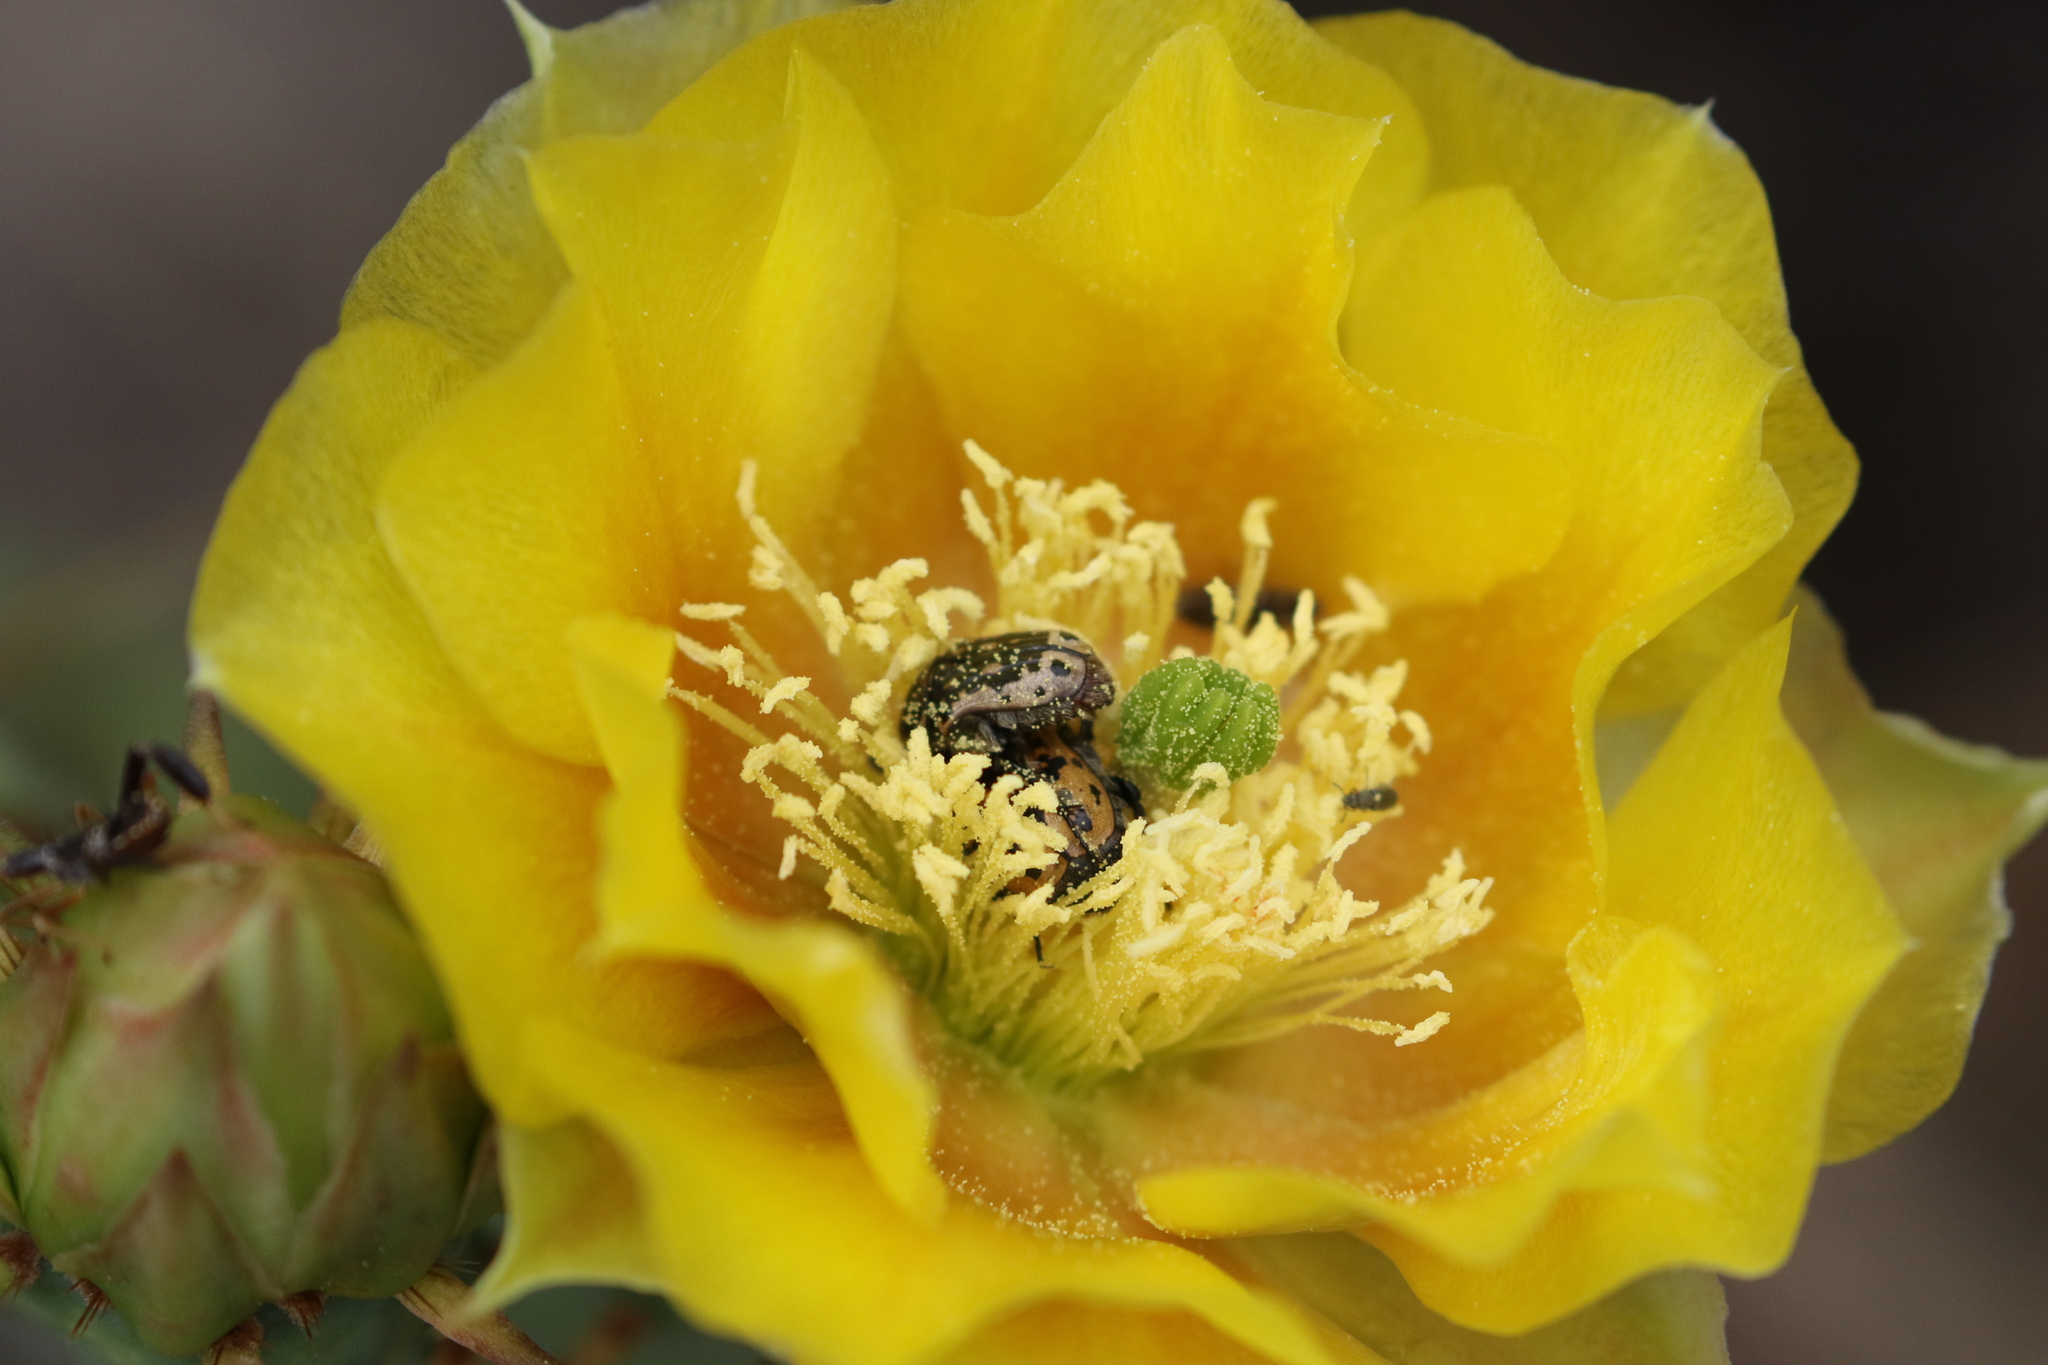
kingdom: Animalia
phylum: Arthropoda
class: Insecta
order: Coleoptera
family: Scarabaeidae
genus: Euphoria
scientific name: Euphoria kernii
